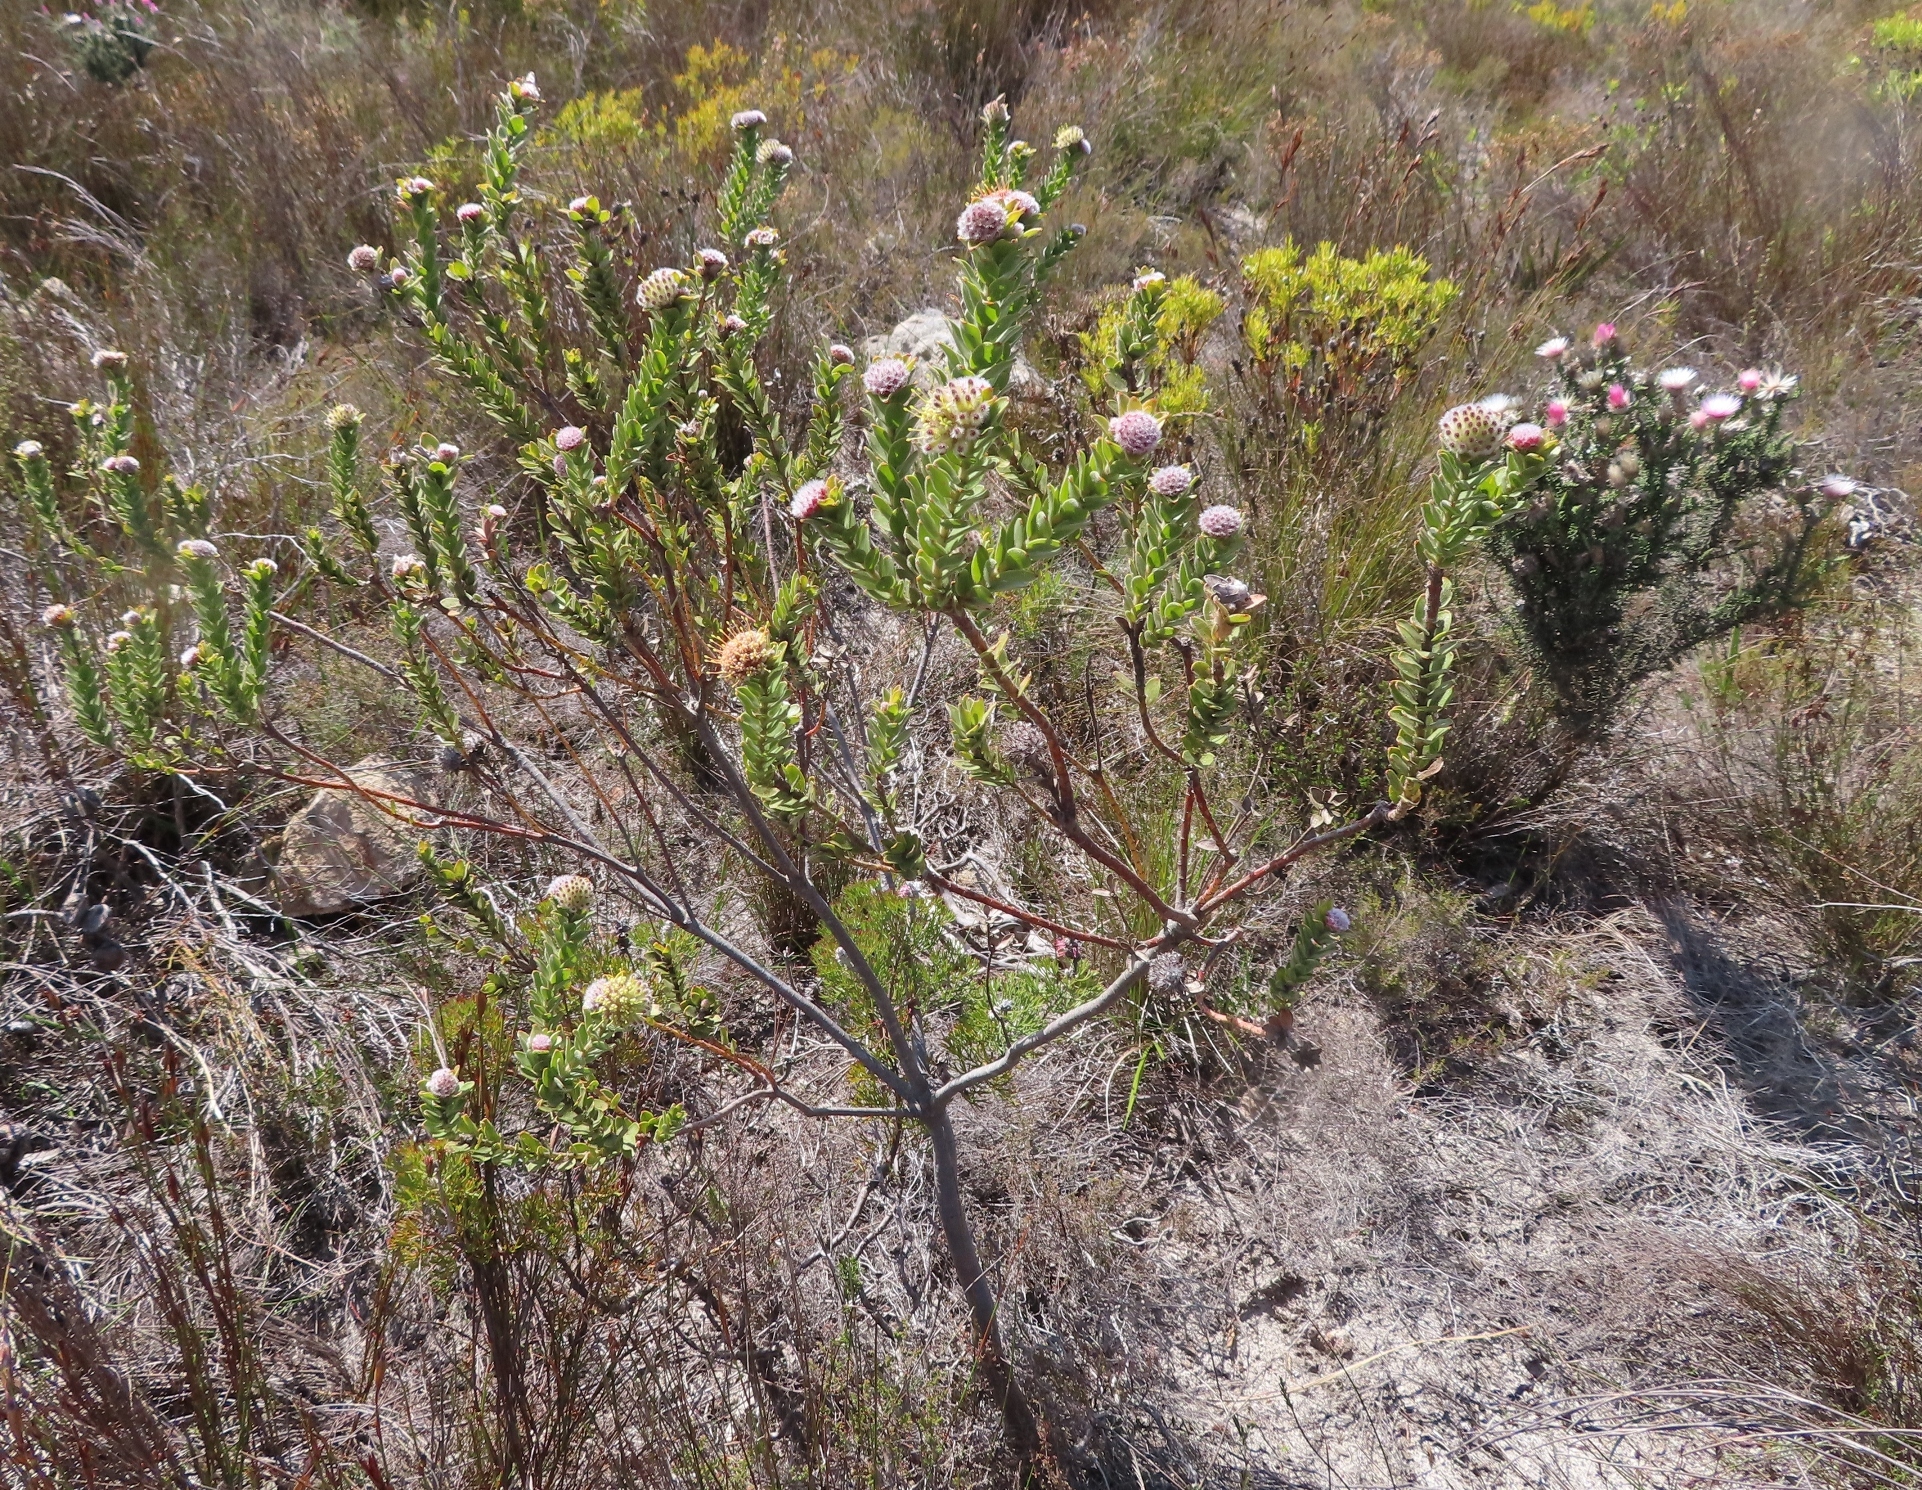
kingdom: Plantae
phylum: Tracheophyta
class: Magnoliopsida
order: Proteales
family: Proteaceae
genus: Leucospermum
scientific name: Leucospermum truncatulum
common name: Oval-leaf pincushion
